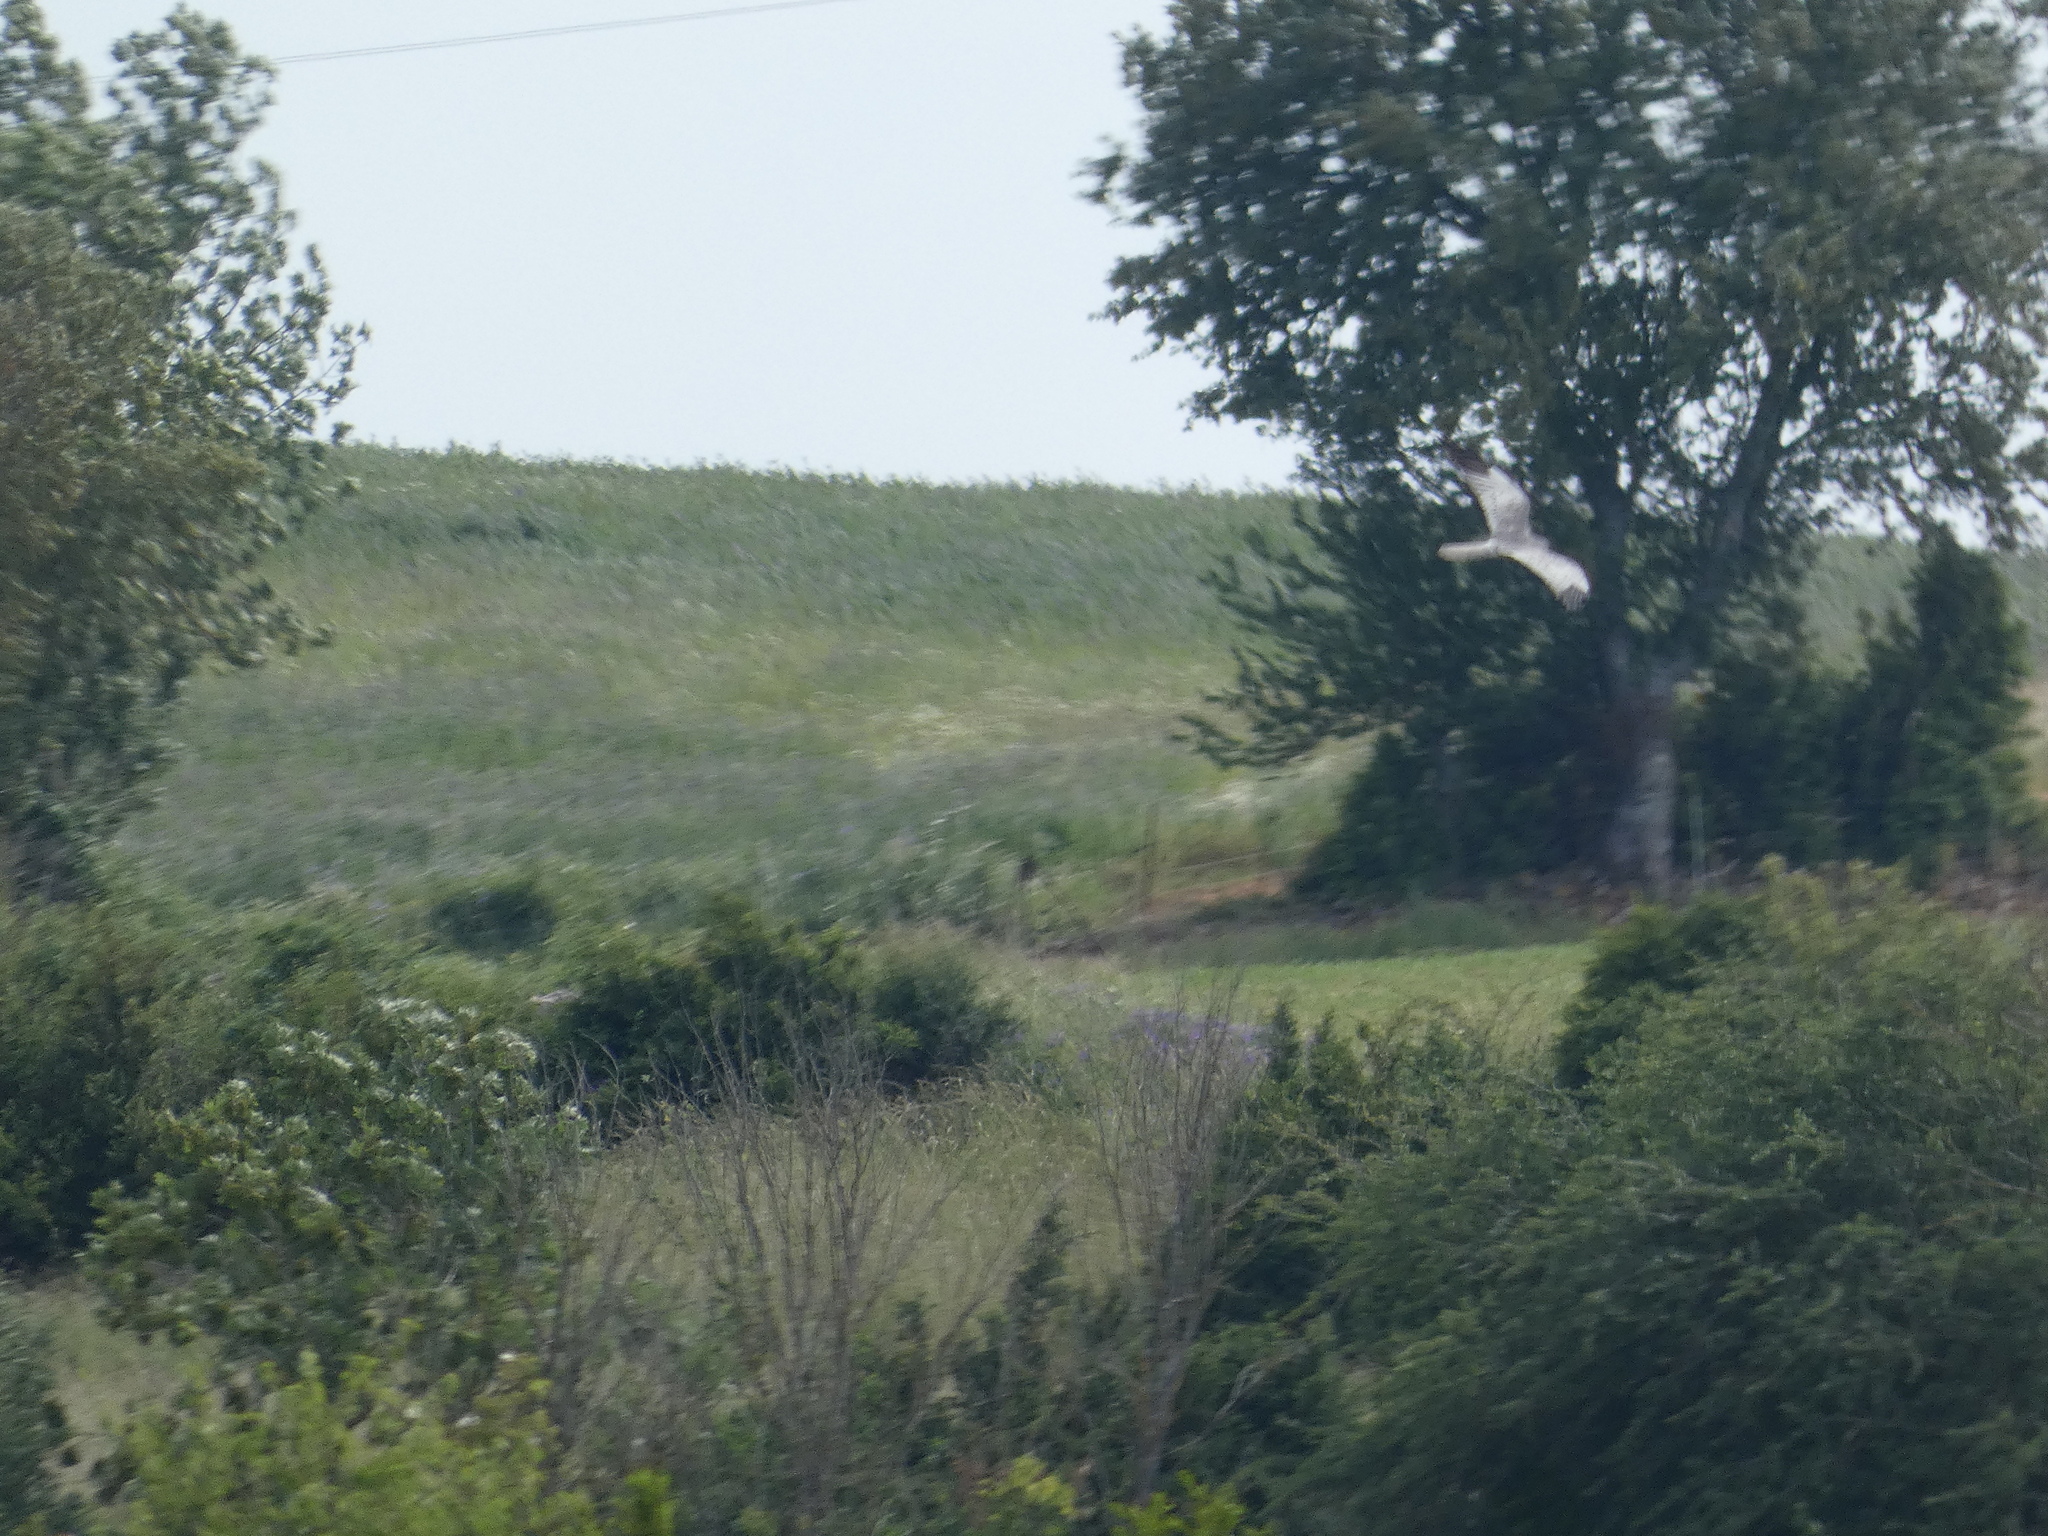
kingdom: Animalia
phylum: Chordata
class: Aves
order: Accipitriformes
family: Accipitridae
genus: Circus
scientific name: Circus pygargus
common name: Montagu's harrier
